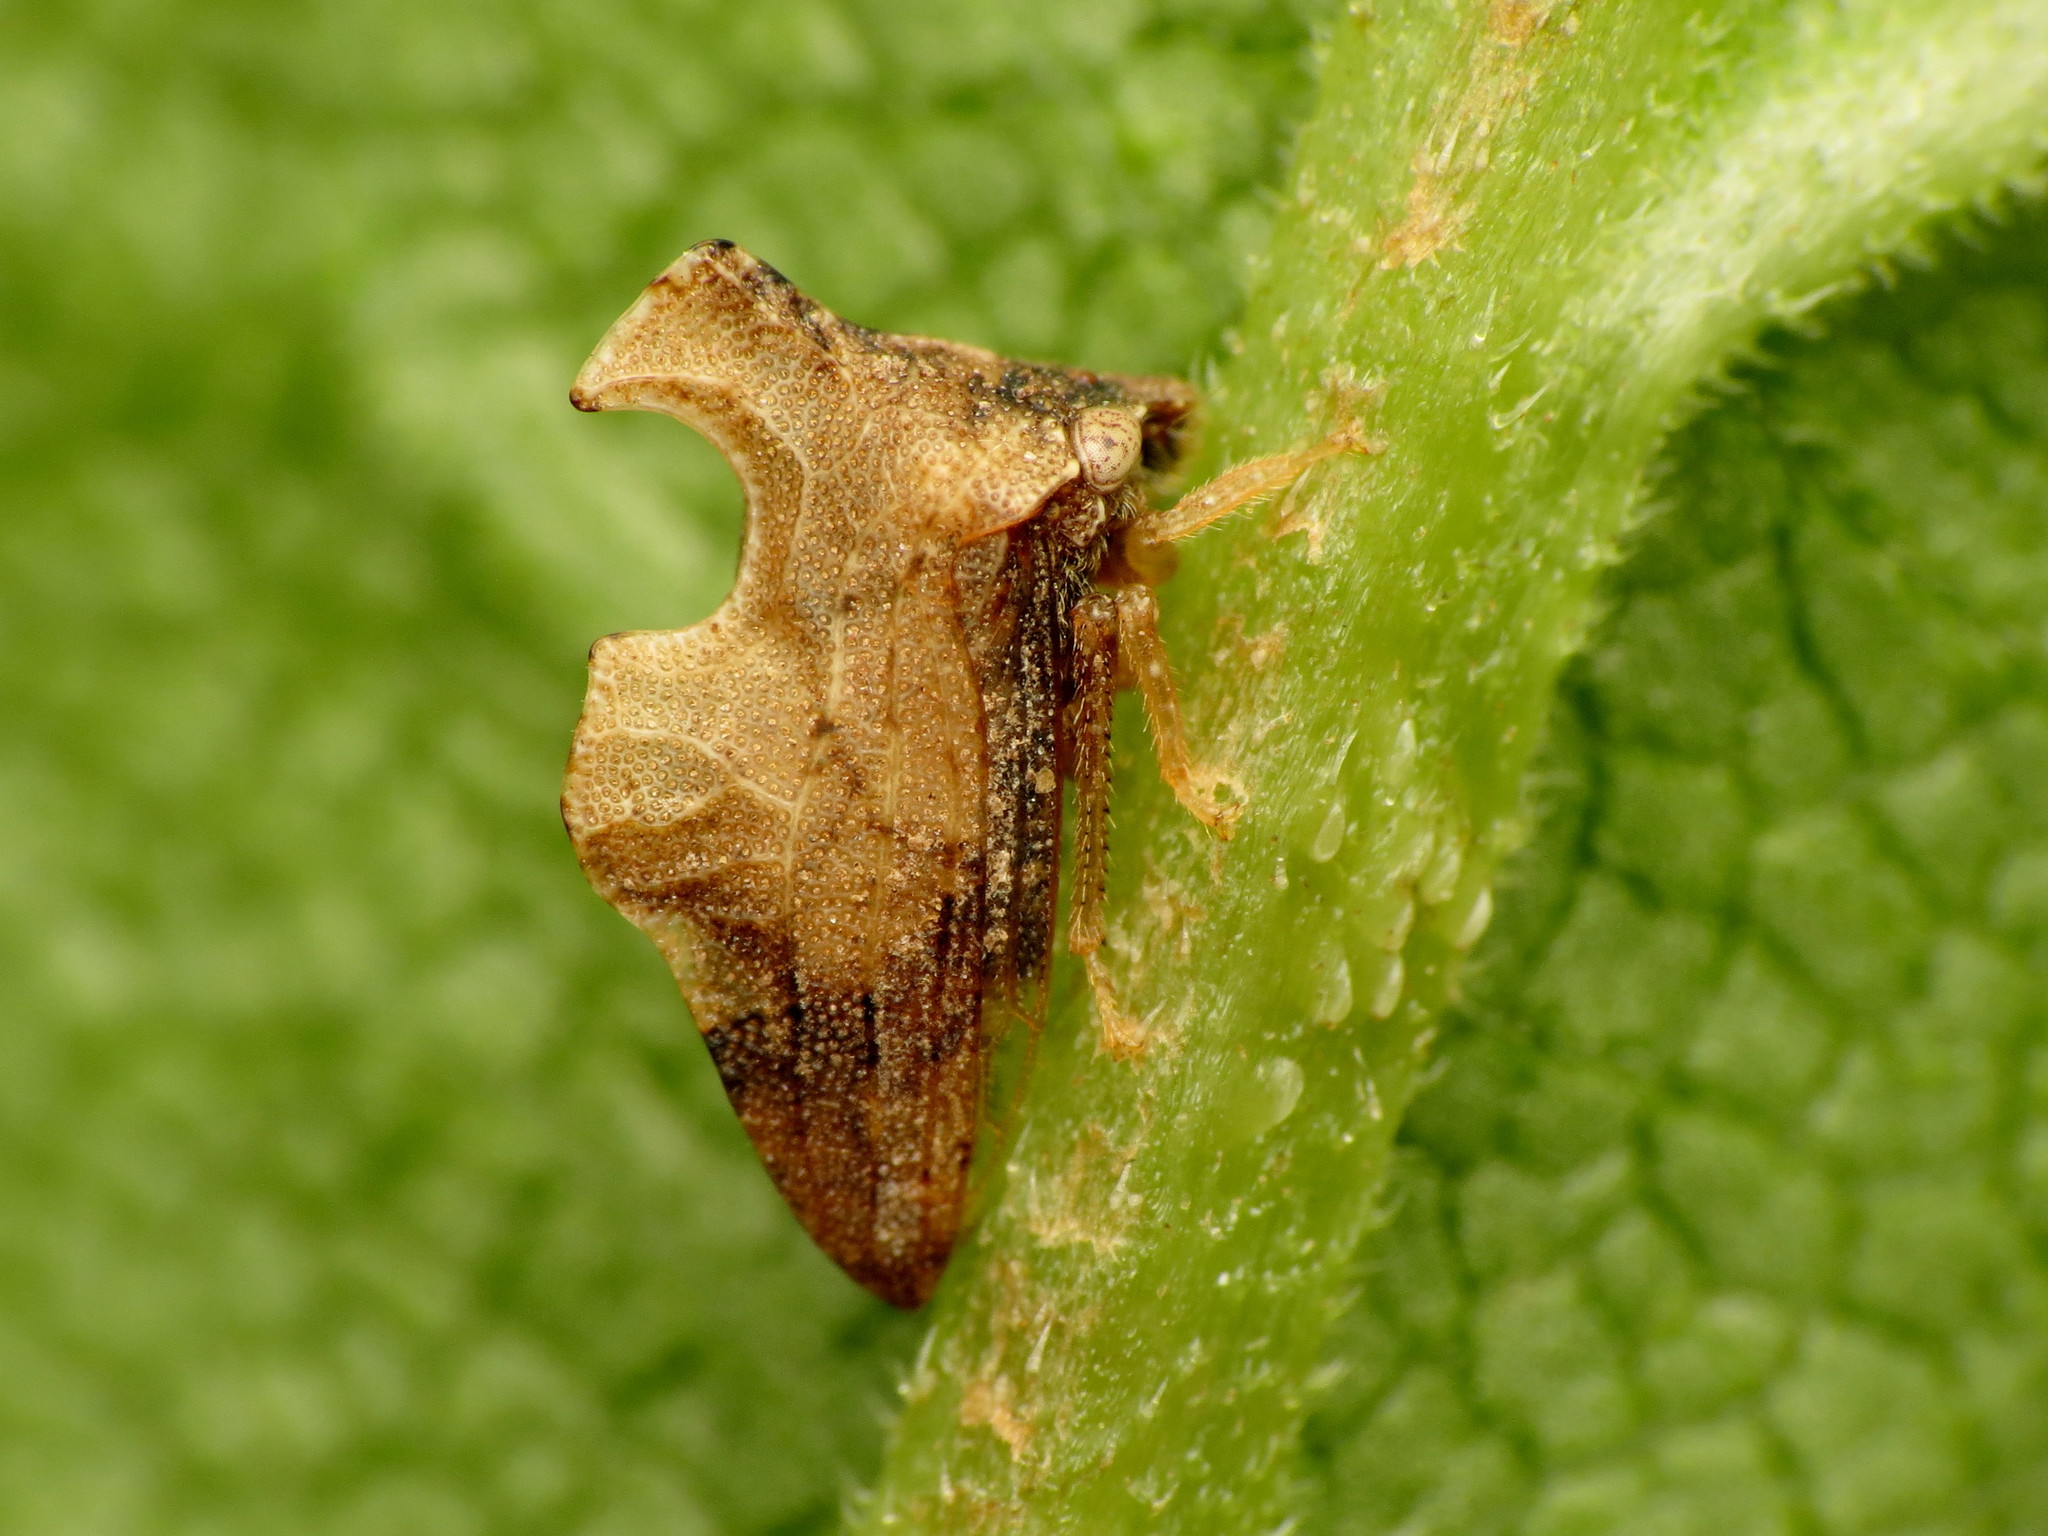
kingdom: Animalia
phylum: Arthropoda
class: Insecta
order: Hemiptera
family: Membracidae
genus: Entylia
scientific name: Entylia carinata
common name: Keeled treehopper
